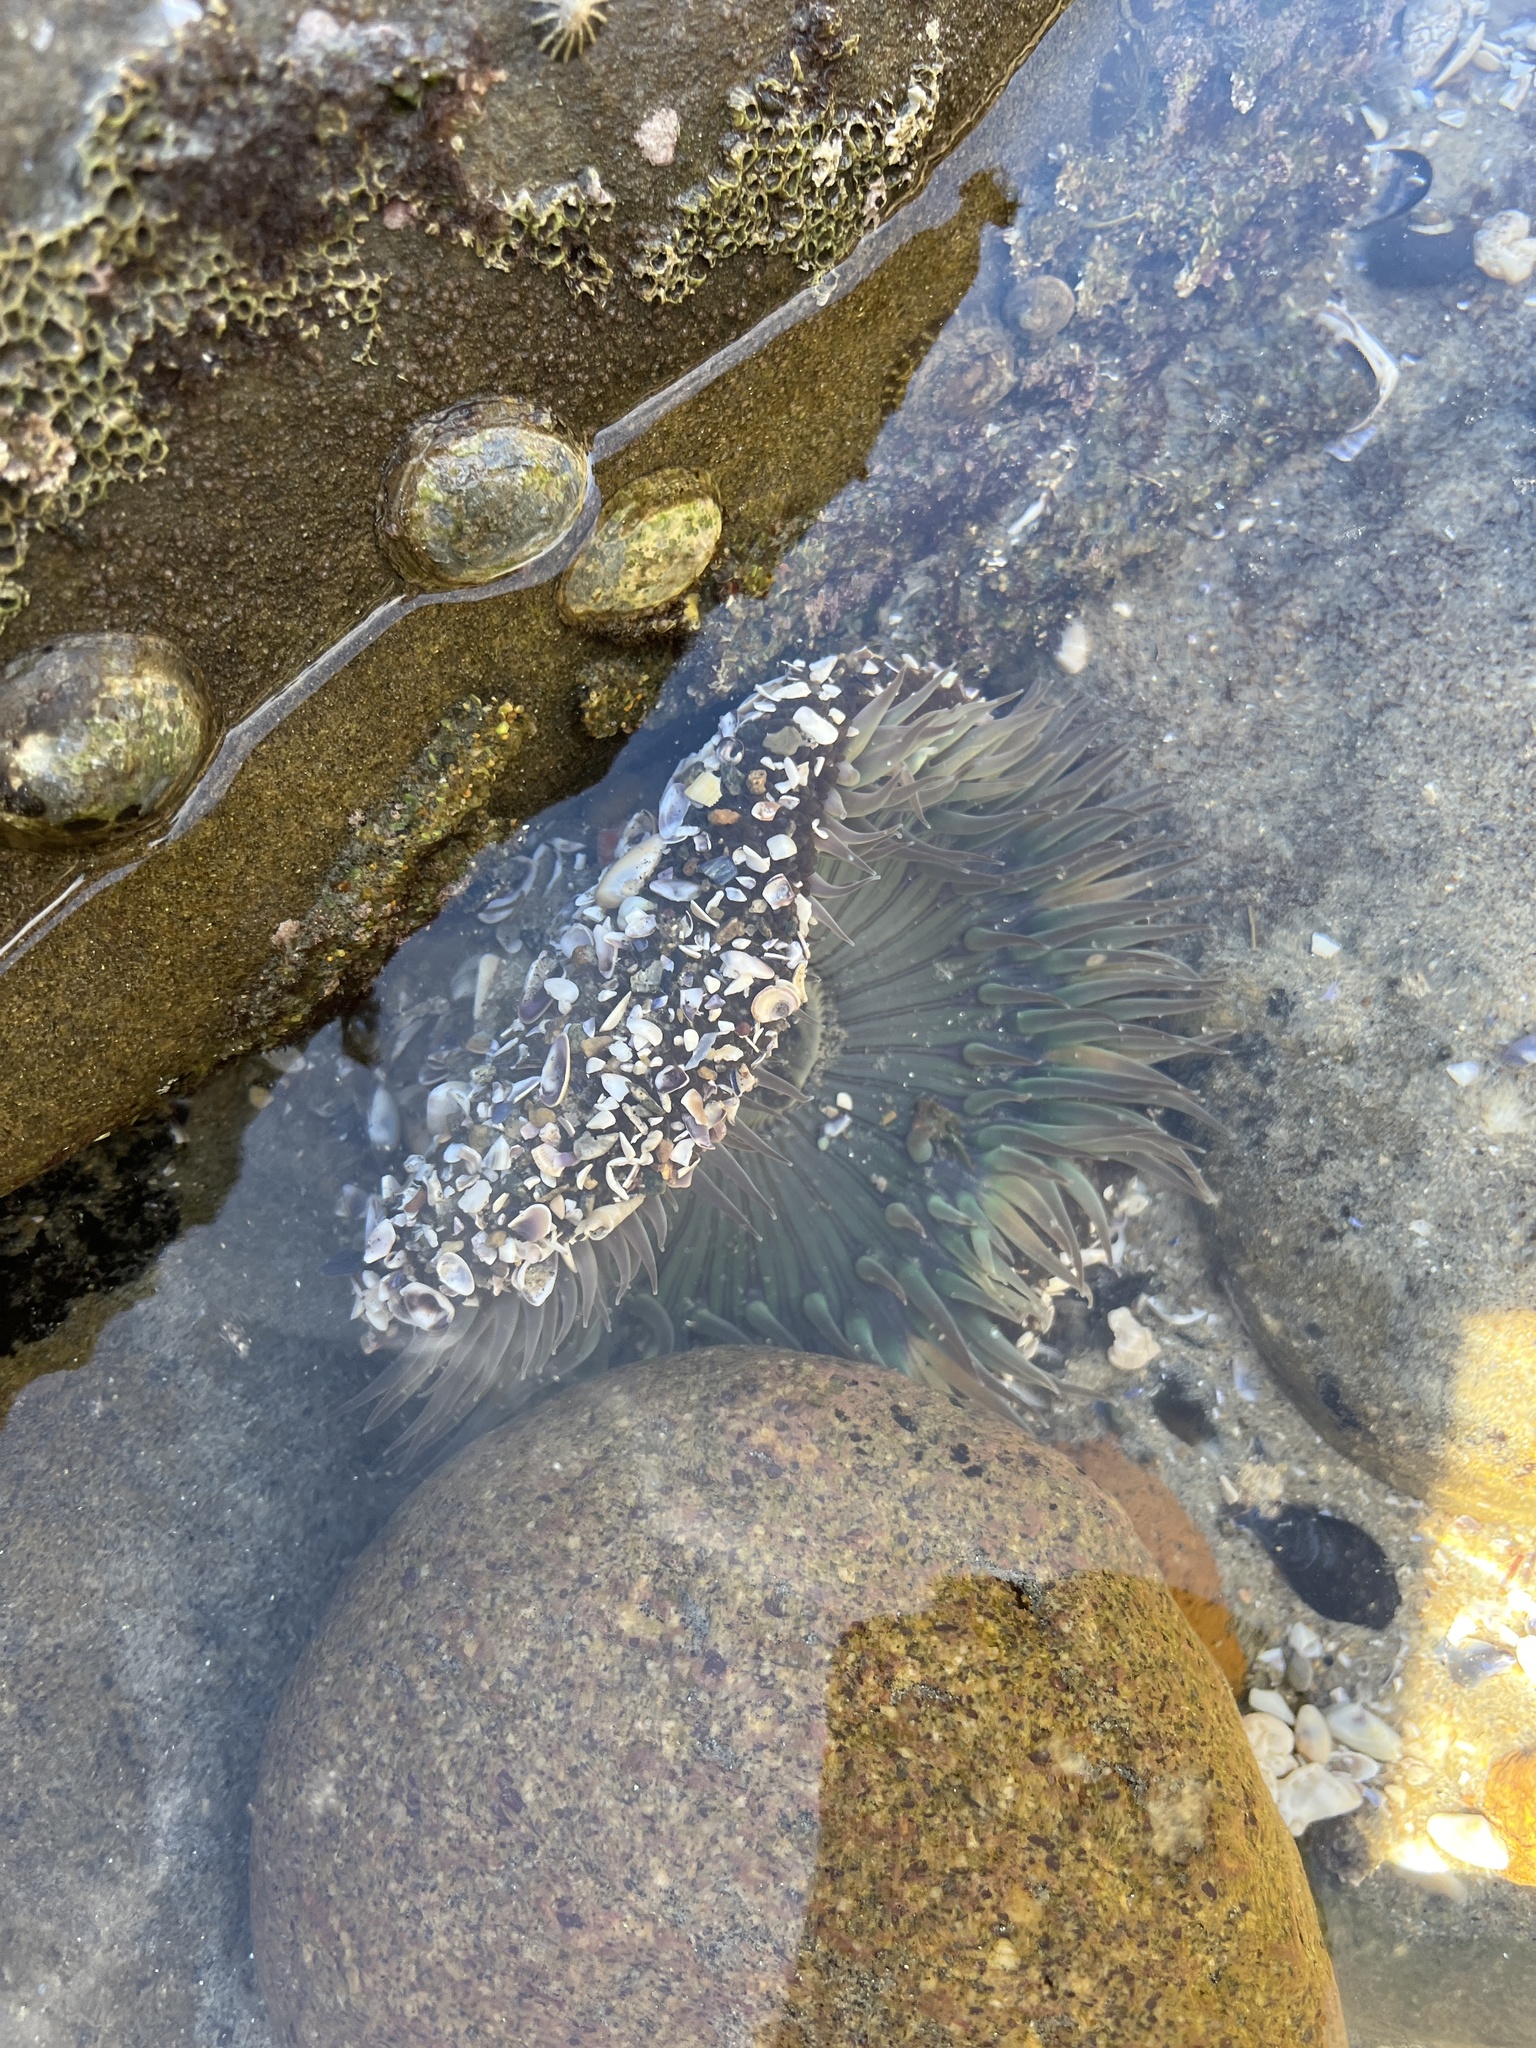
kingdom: Animalia
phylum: Cnidaria
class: Anthozoa
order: Actiniaria
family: Actiniidae
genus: Anthopleura
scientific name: Anthopleura sola
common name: Sun anemone
